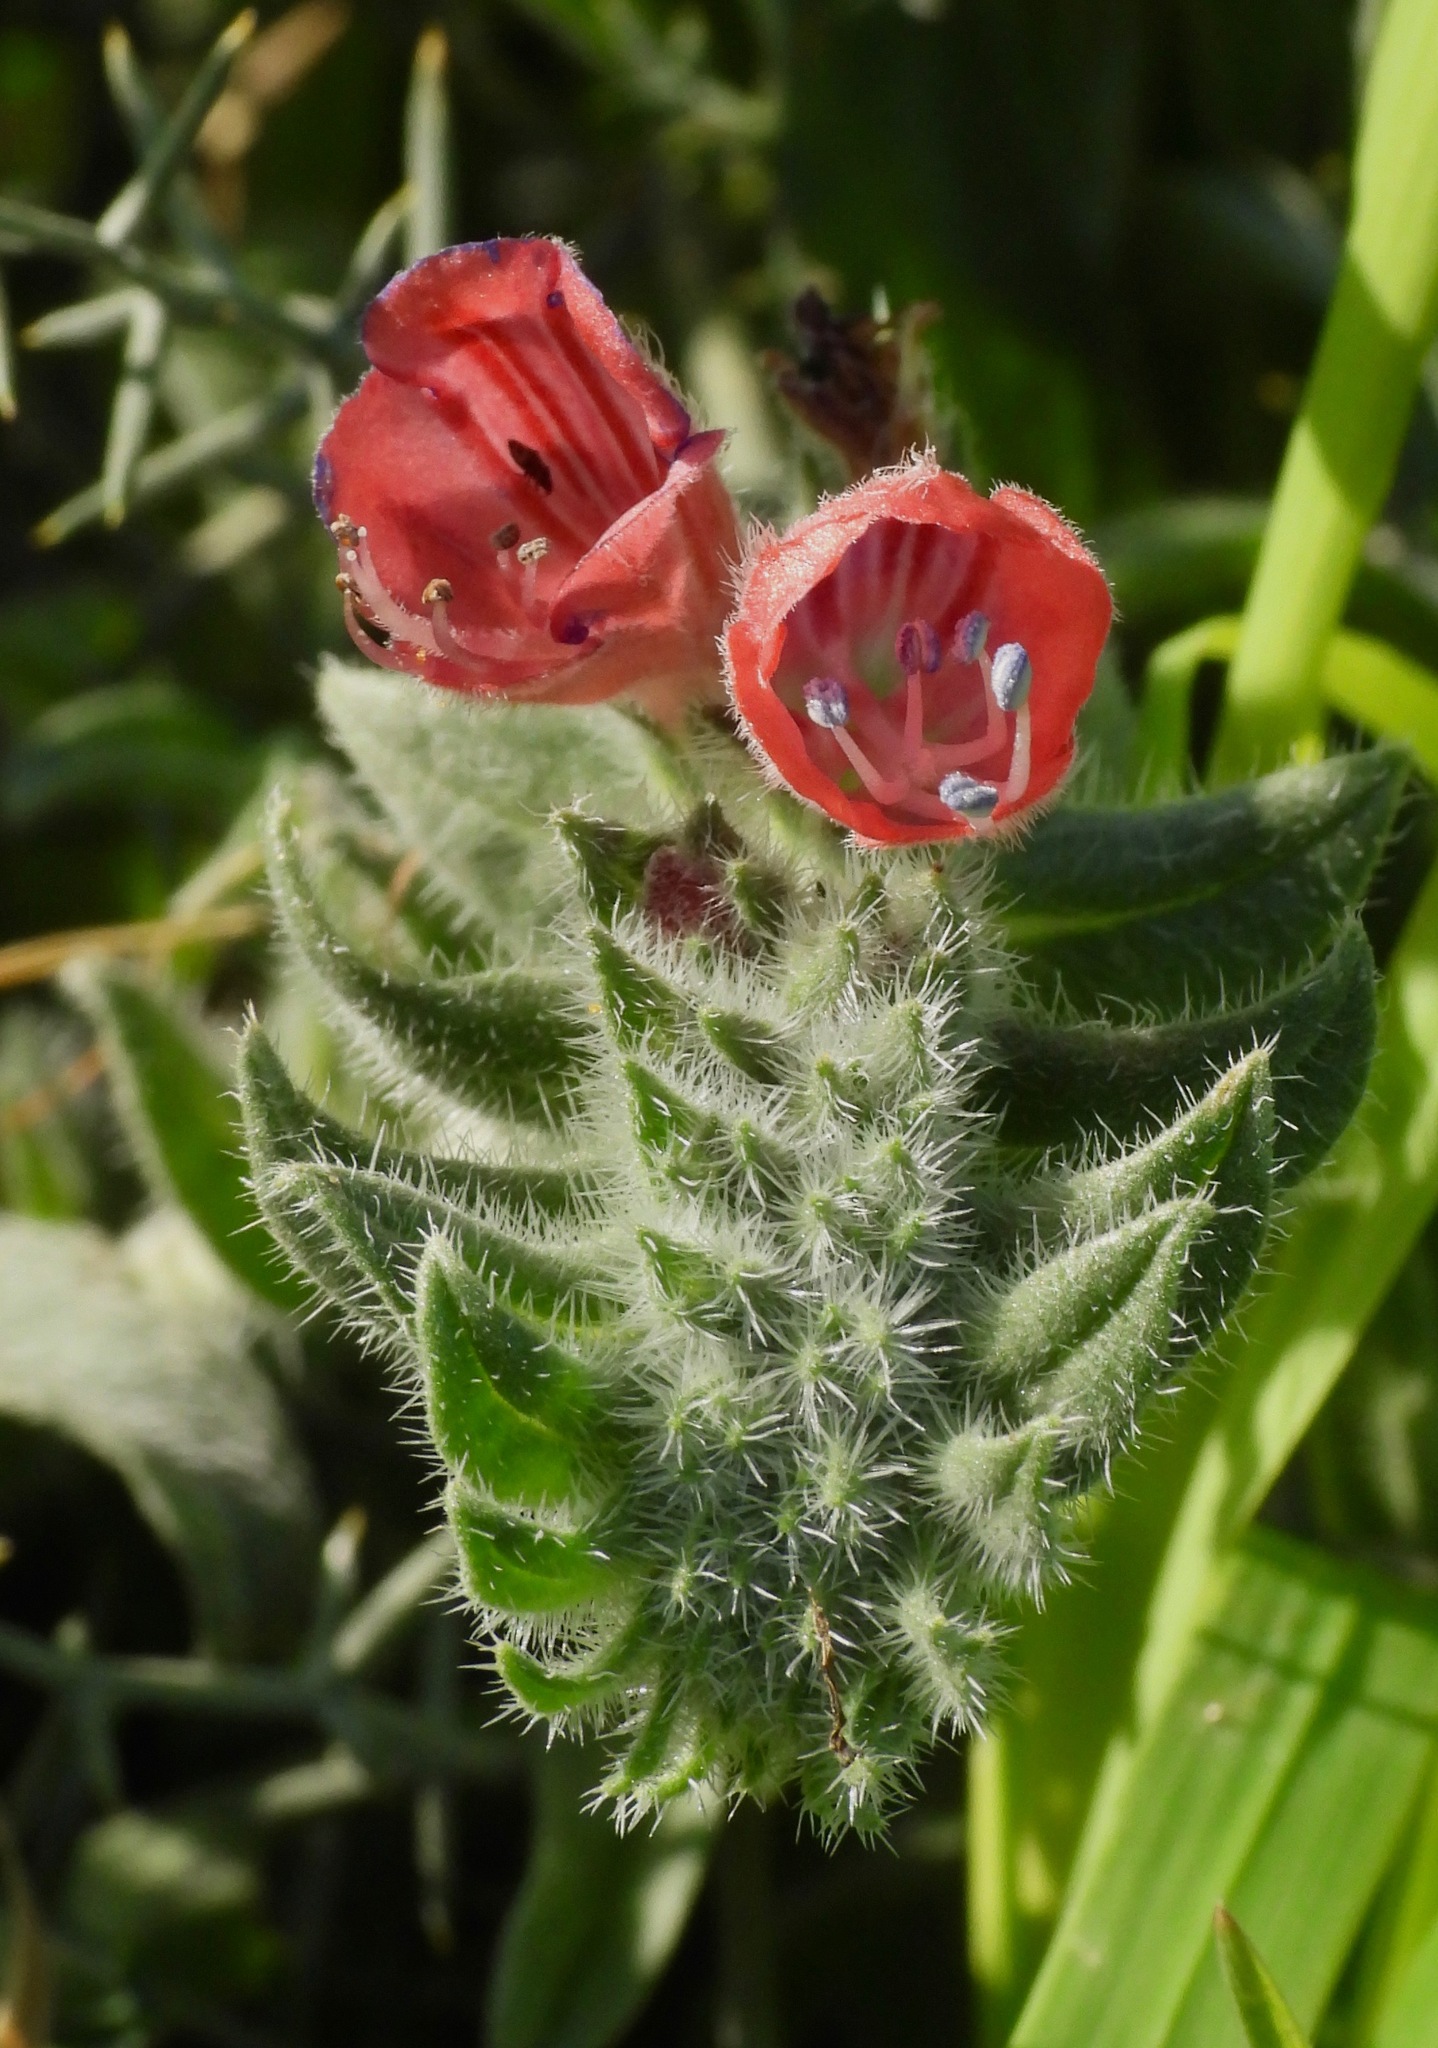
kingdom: Plantae
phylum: Tracheophyta
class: Magnoliopsida
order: Boraginales
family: Boraginaceae
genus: Echium
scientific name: Echium angustifolium
